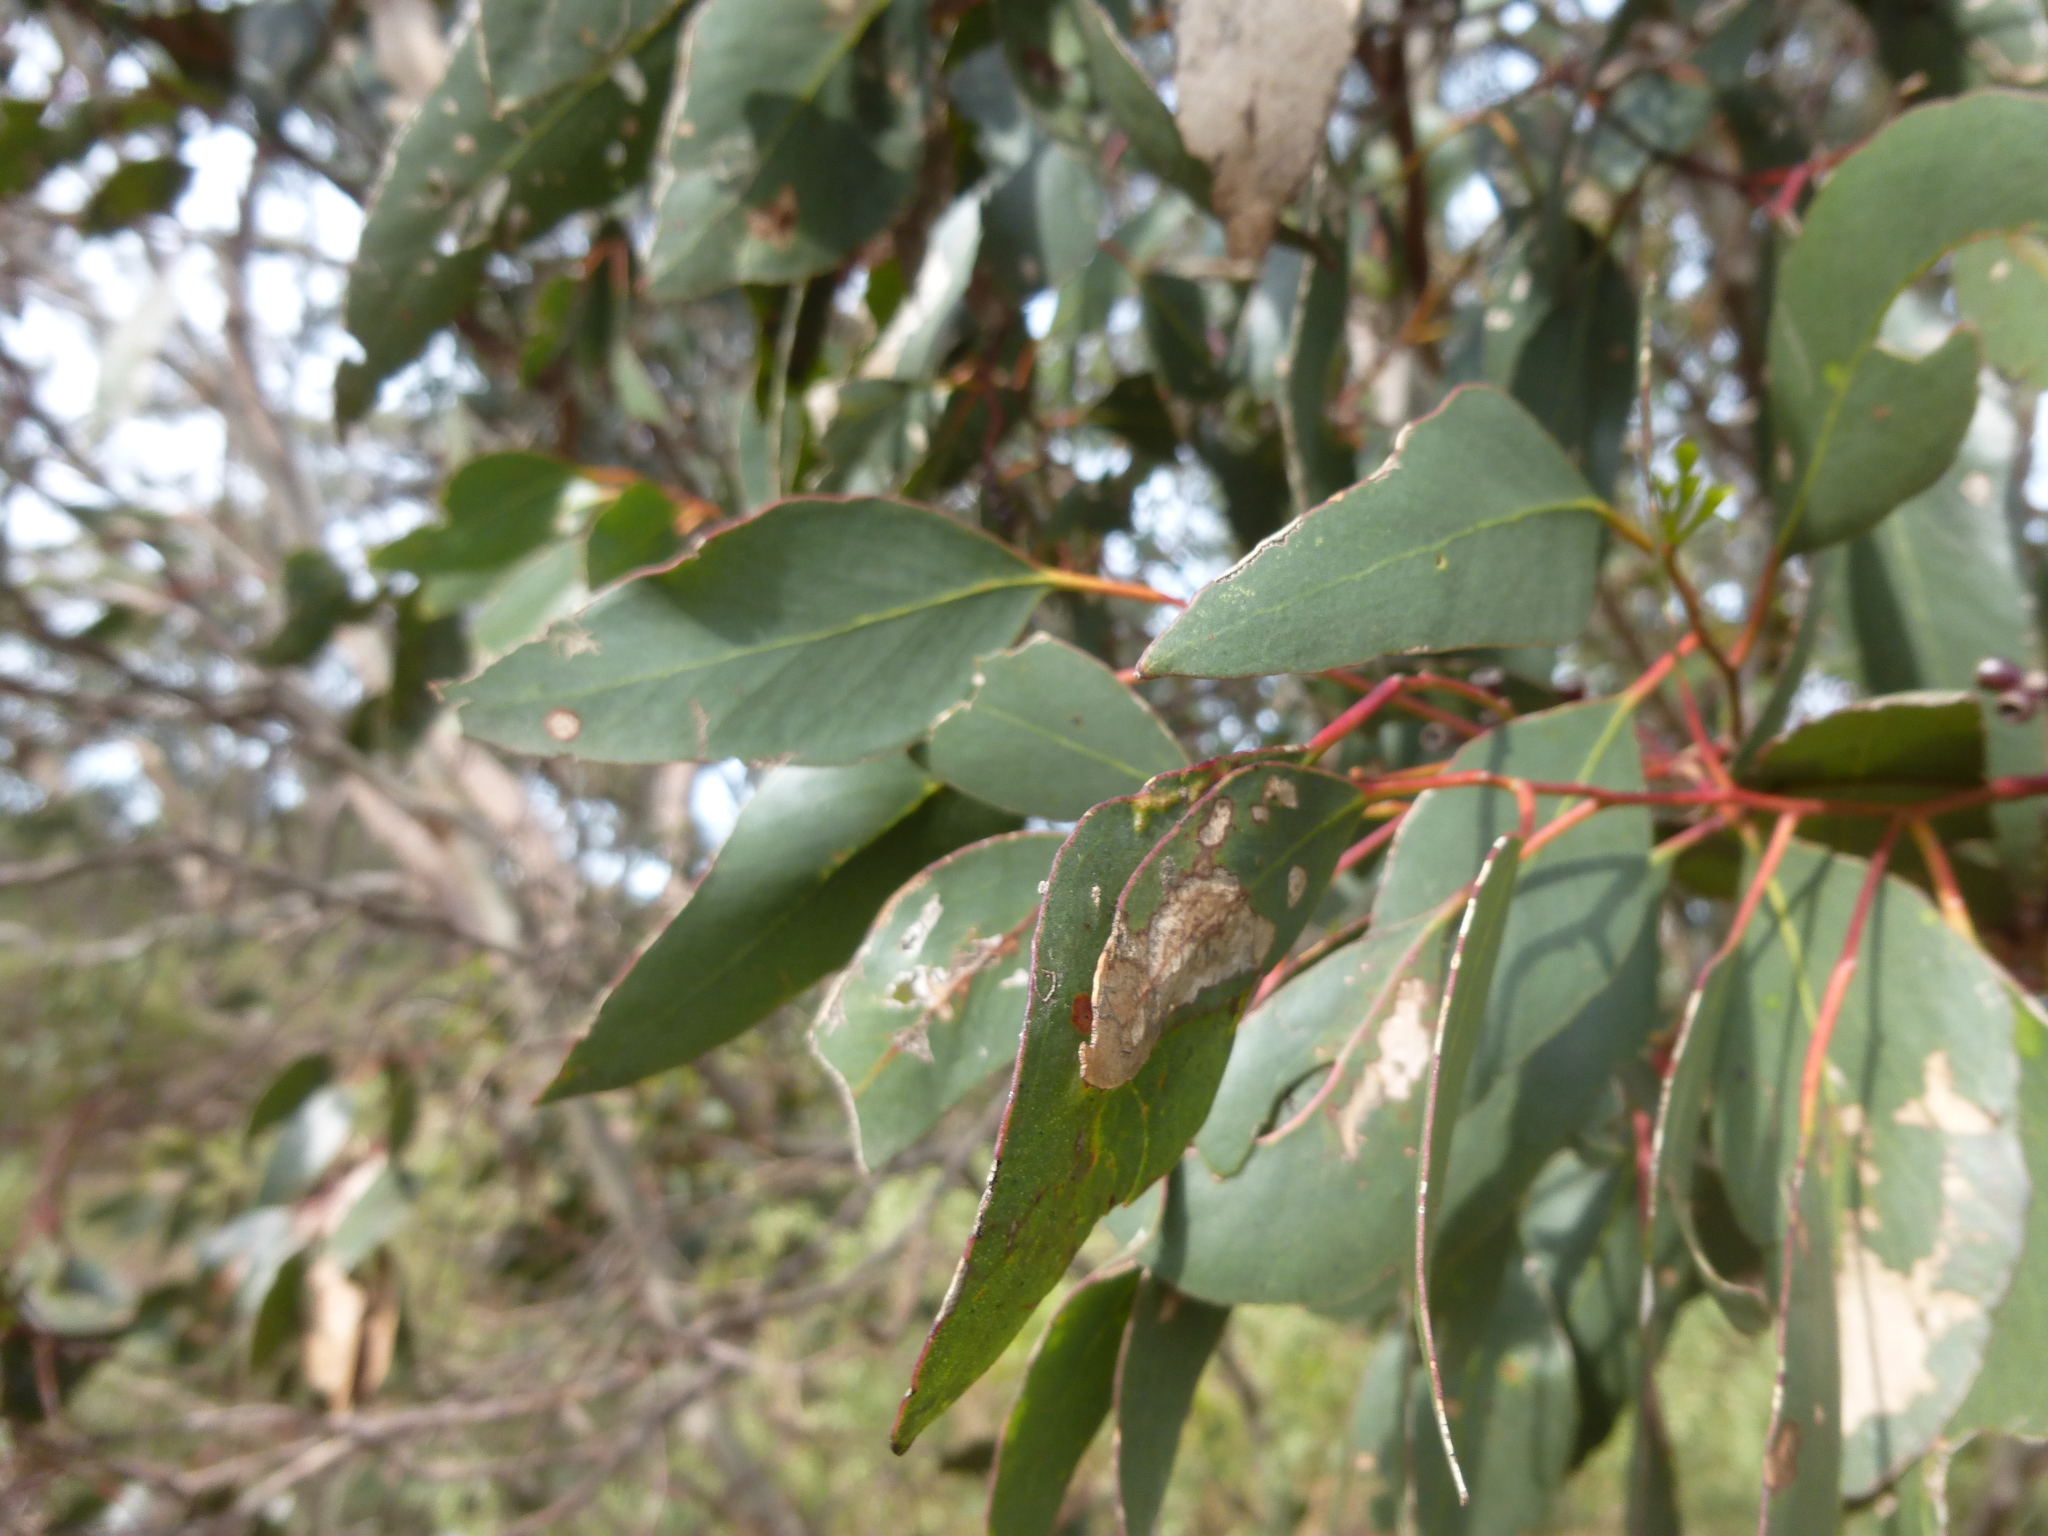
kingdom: Plantae
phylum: Tracheophyta
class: Magnoliopsida
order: Myrtales
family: Myrtaceae
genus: Eucalyptus
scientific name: Eucalyptus behriana
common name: Bull mallee
